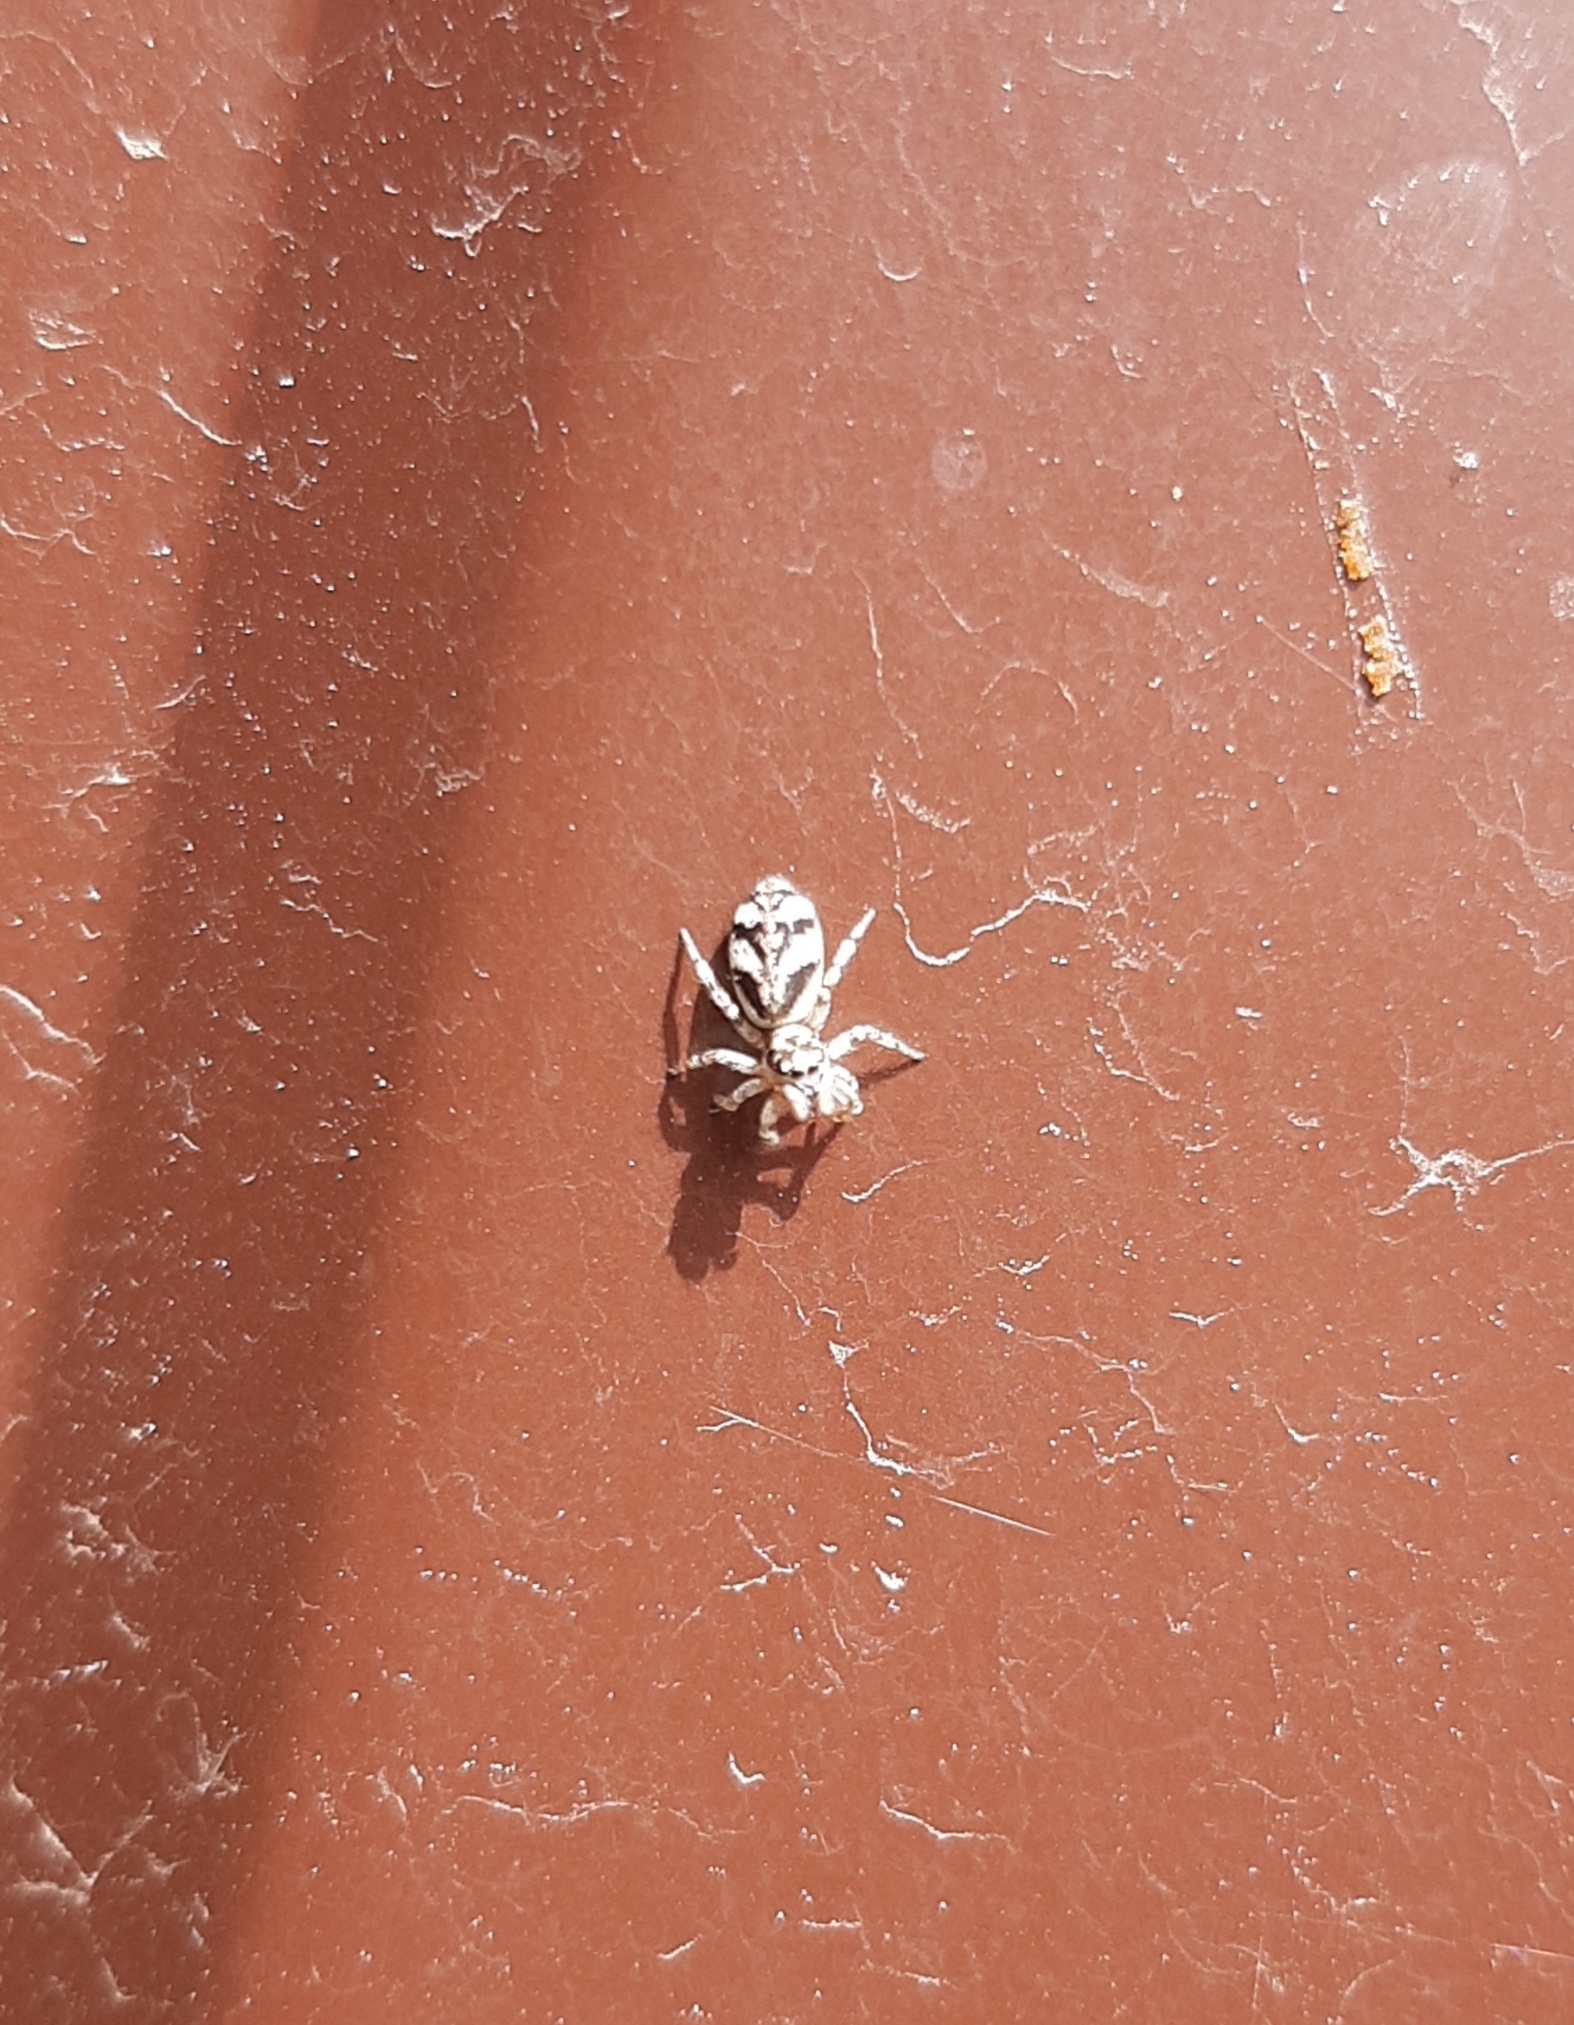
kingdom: Animalia
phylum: Arthropoda
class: Arachnida
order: Araneae
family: Salticidae
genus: Salticus
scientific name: Salticus cingulatus
